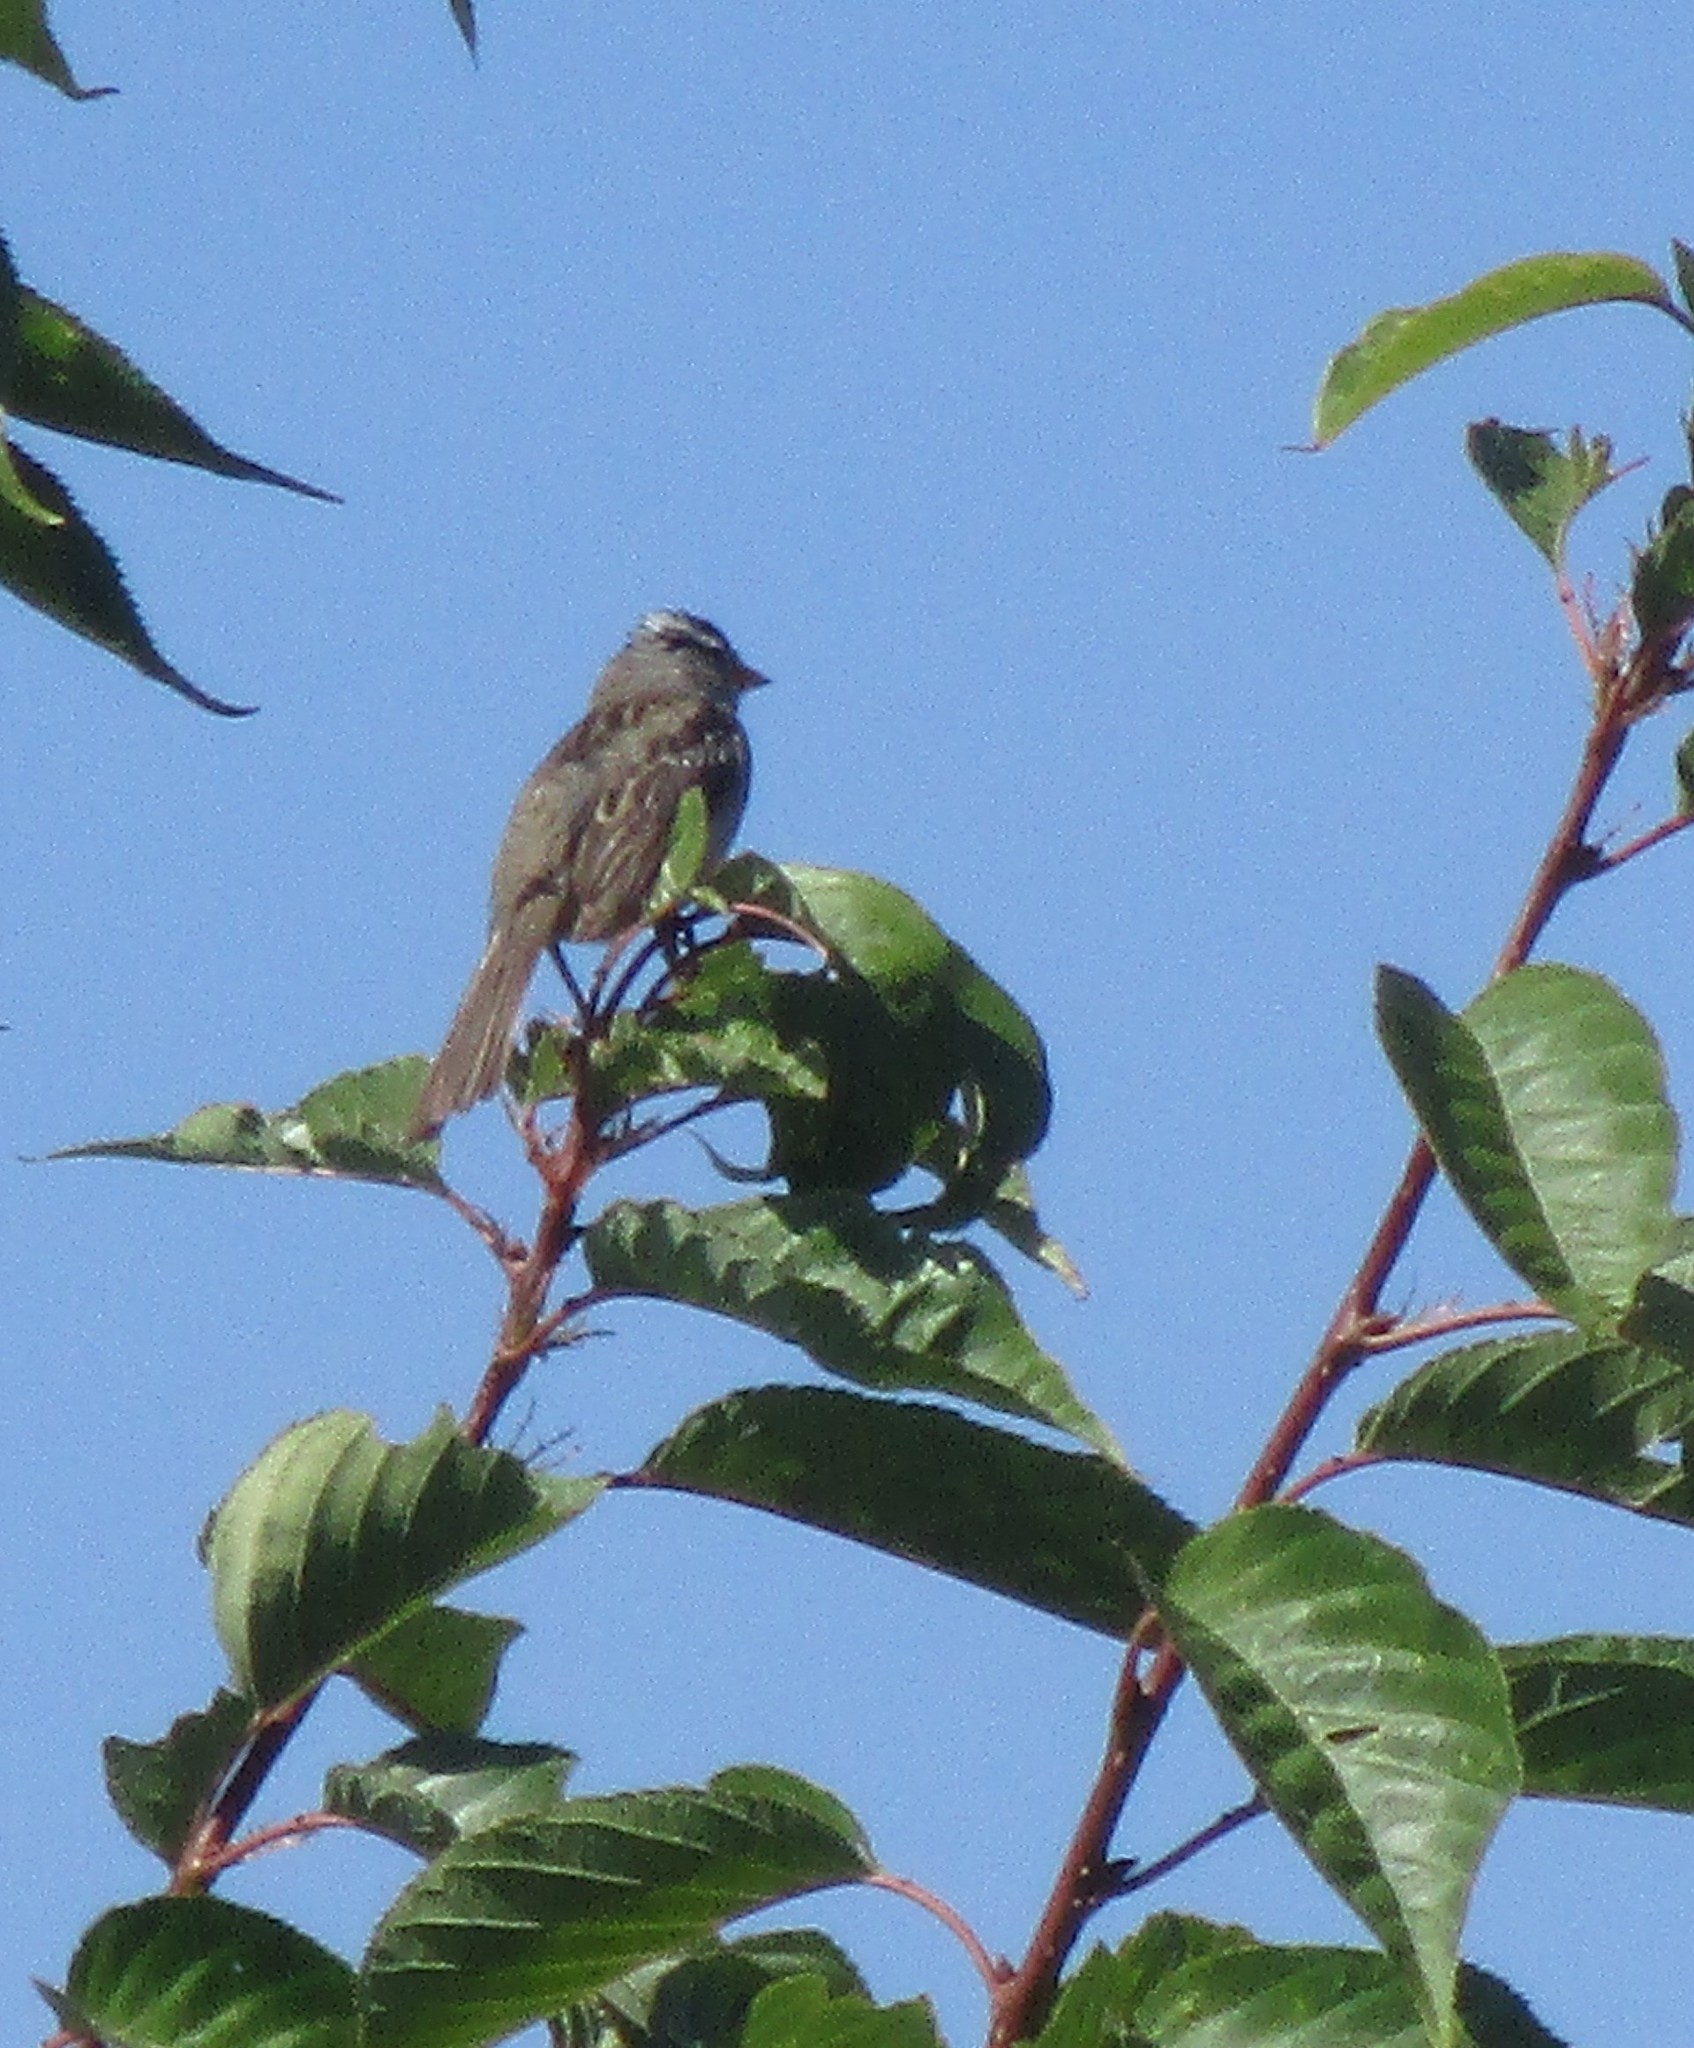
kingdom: Animalia
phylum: Chordata
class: Aves
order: Passeriformes
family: Passerellidae
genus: Zonotrichia
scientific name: Zonotrichia leucophrys
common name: White-crowned sparrow
